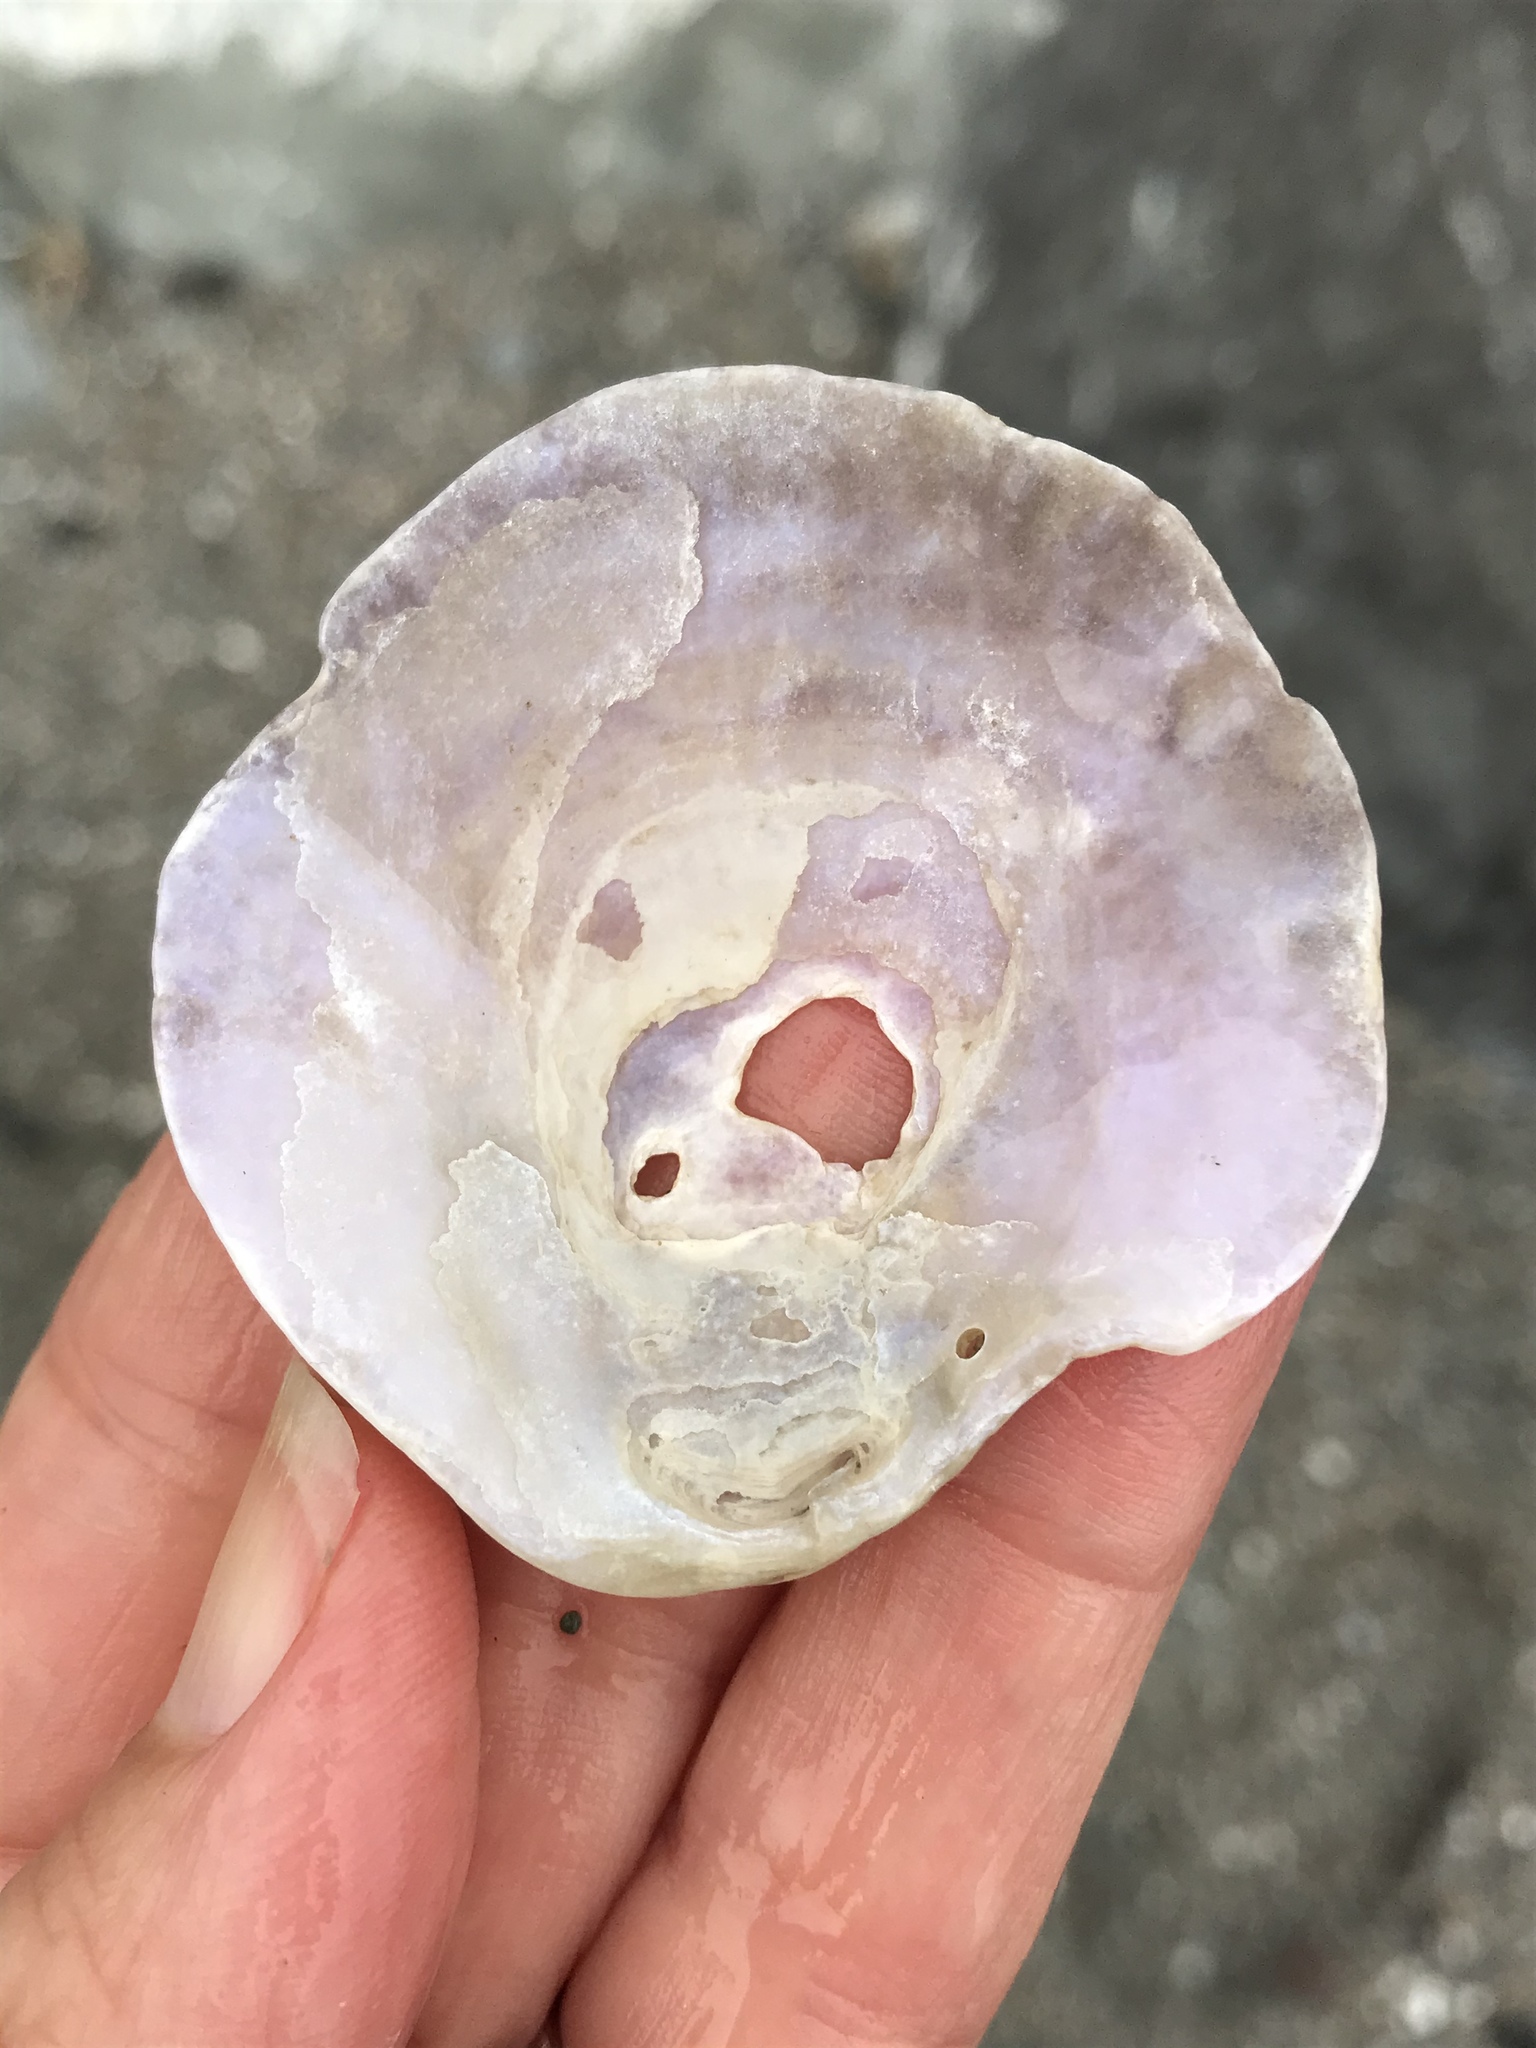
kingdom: Animalia
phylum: Mollusca
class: Bivalvia
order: Pectinida
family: Anomiidae
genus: Pododesmus
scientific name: Pododesmus macrochisma
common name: Alaska jingle
